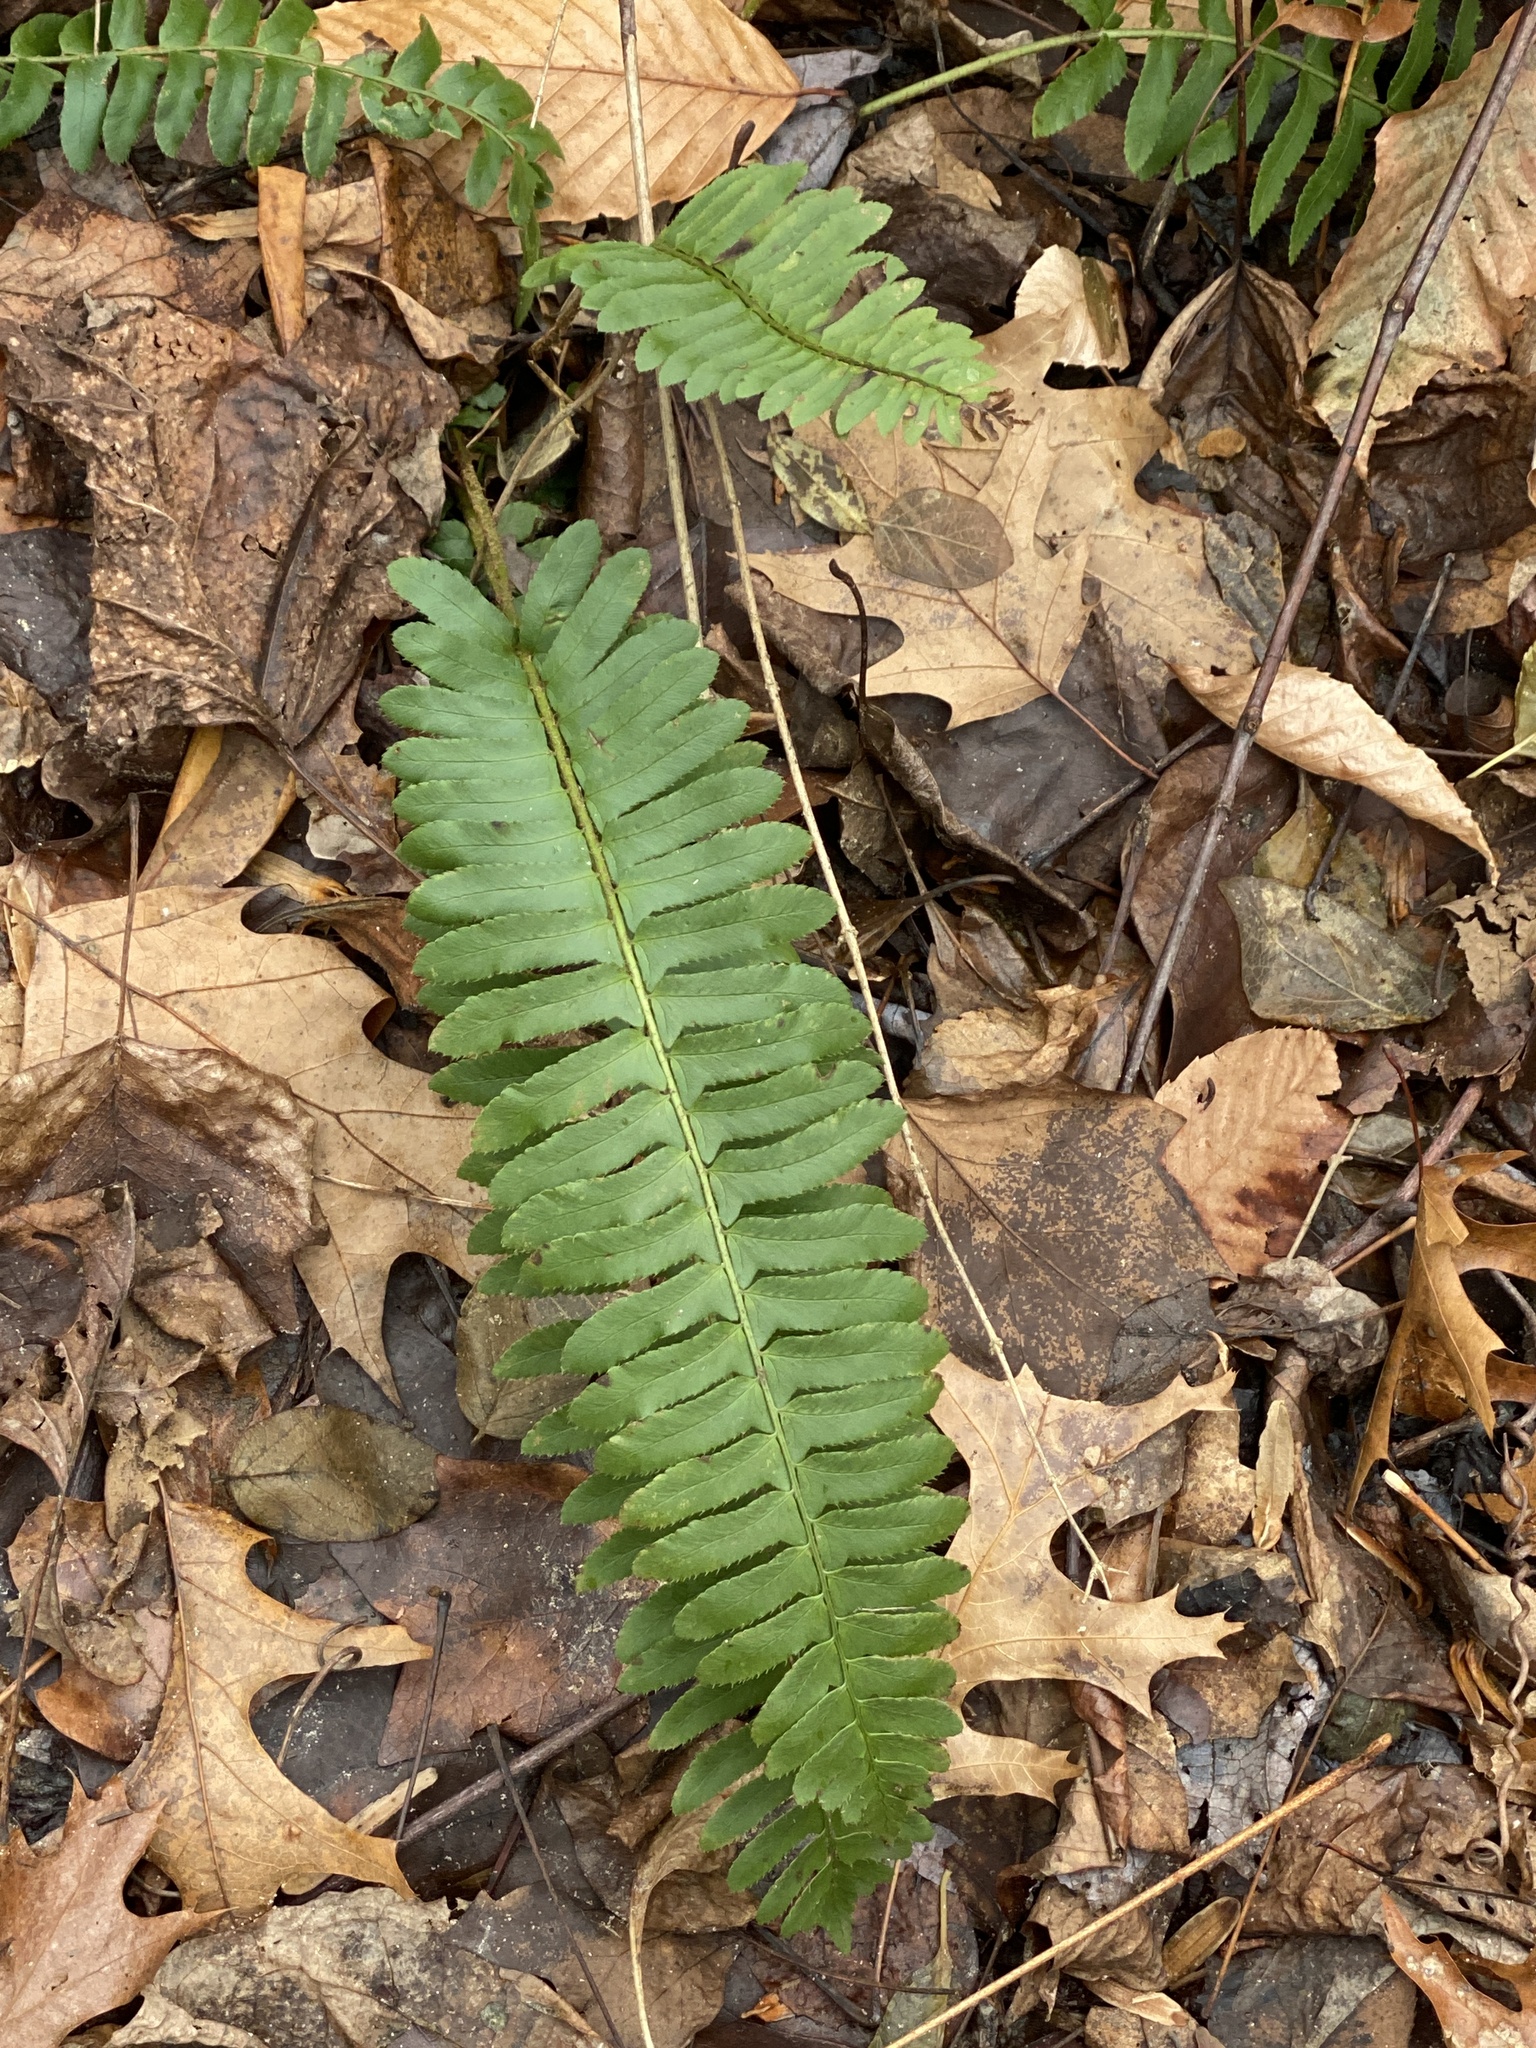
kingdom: Plantae
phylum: Tracheophyta
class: Polypodiopsida
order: Polypodiales
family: Dryopteridaceae
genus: Polystichum
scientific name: Polystichum acrostichoides
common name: Christmas fern
